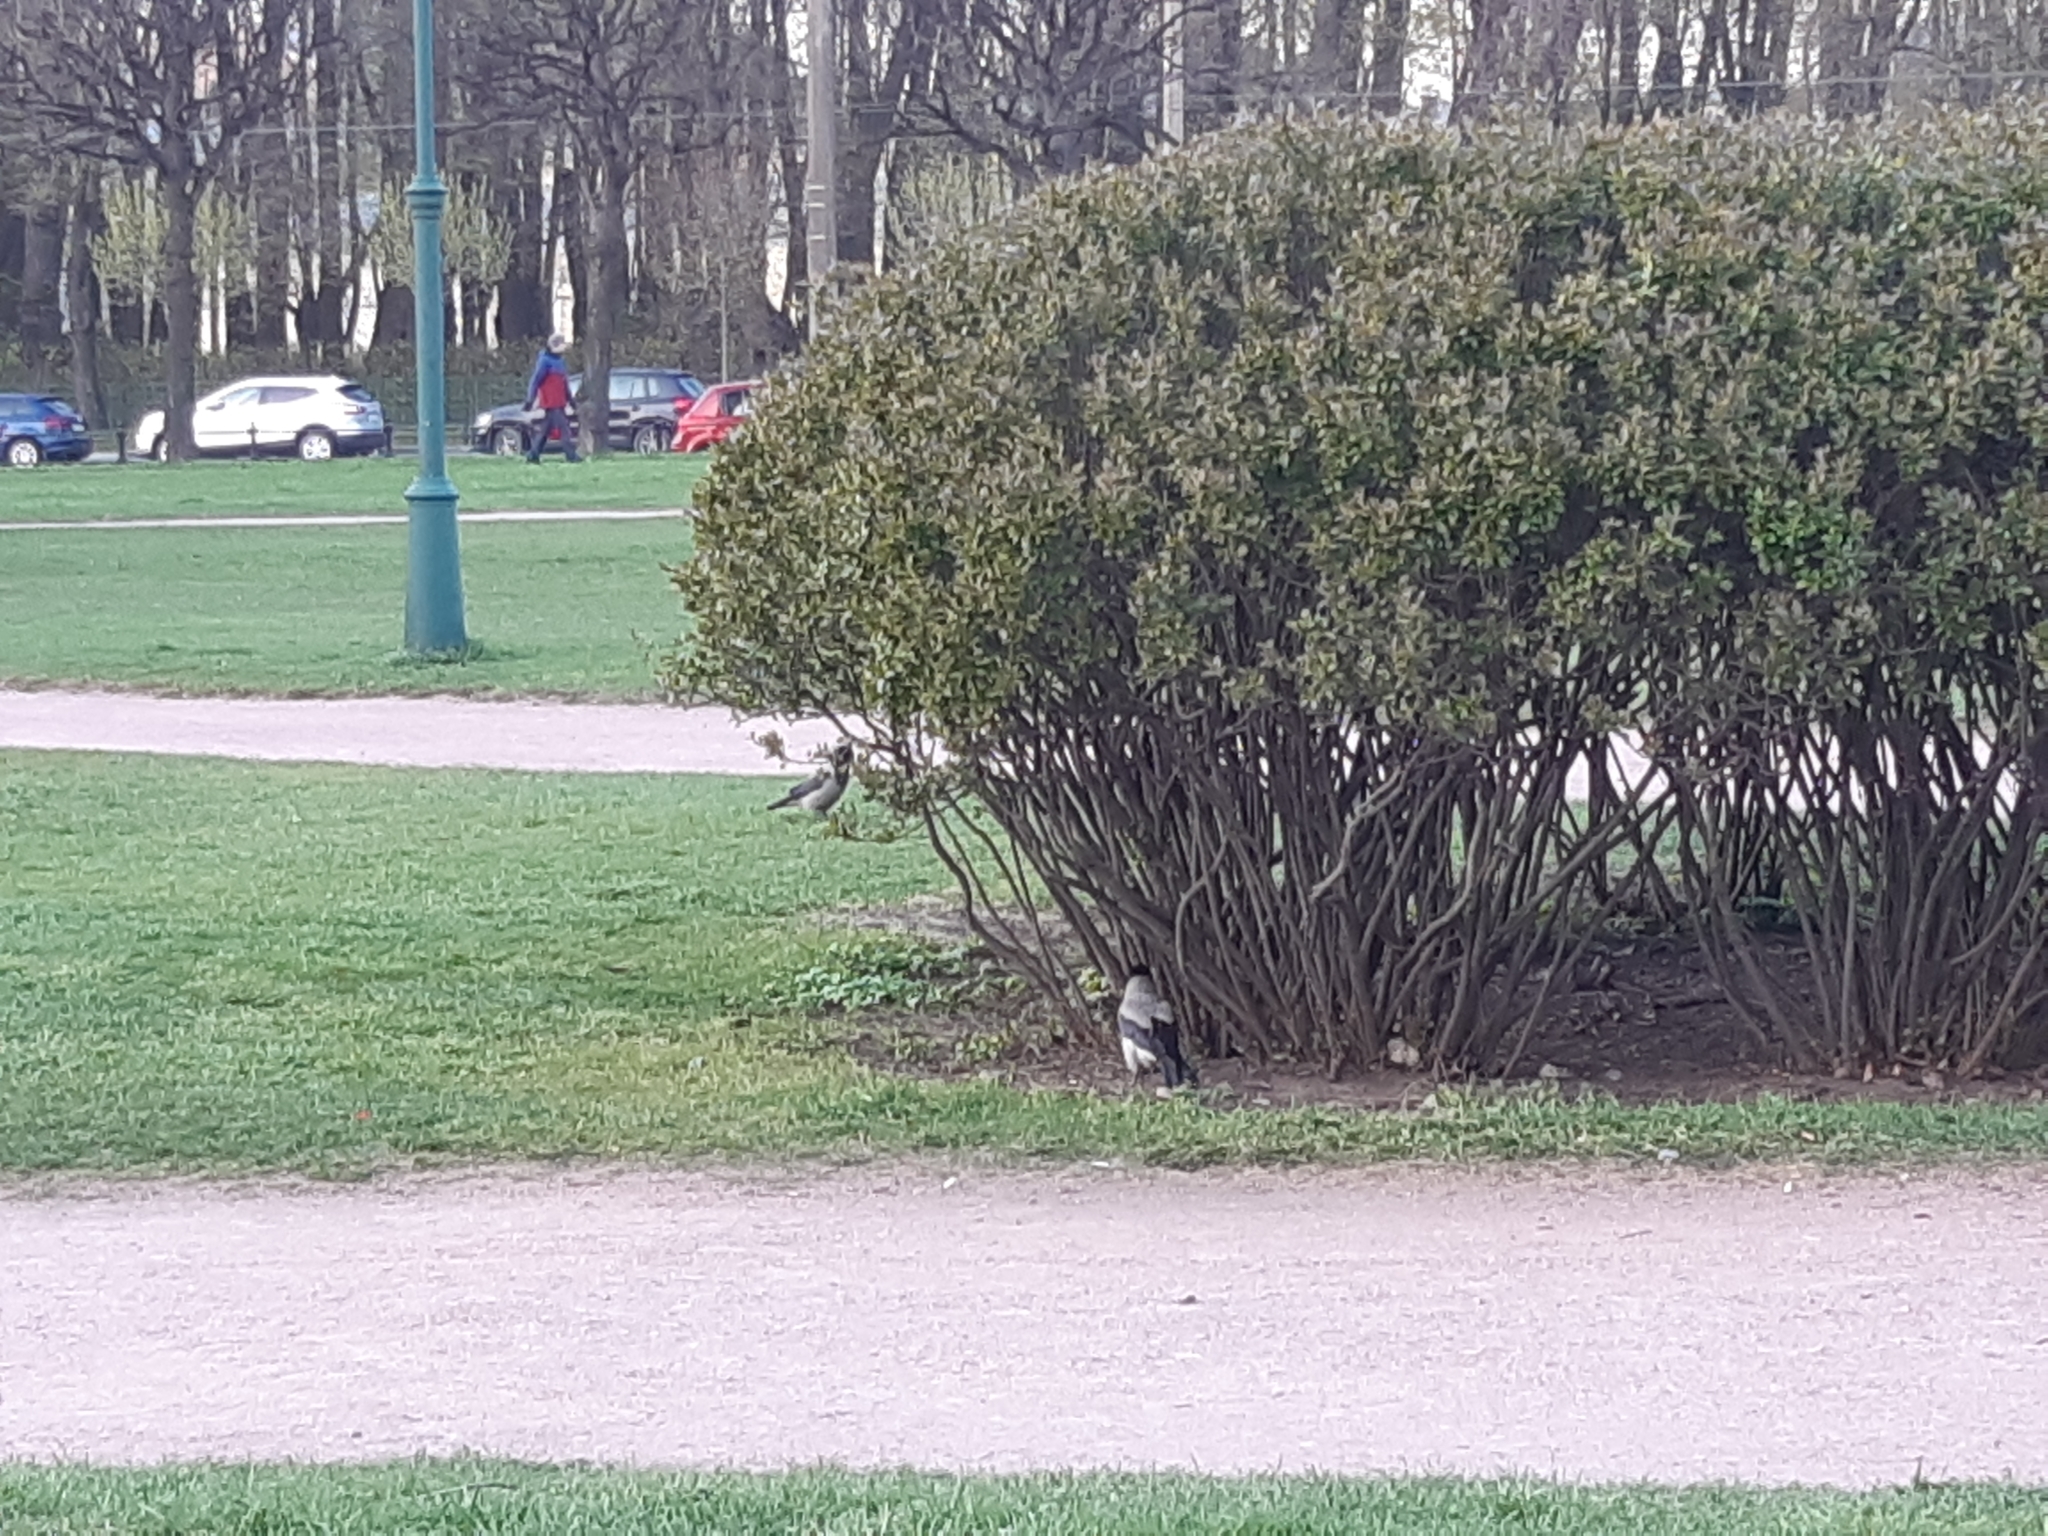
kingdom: Animalia
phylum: Chordata
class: Aves
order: Passeriformes
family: Corvidae
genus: Corvus
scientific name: Corvus cornix
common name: Hooded crow
